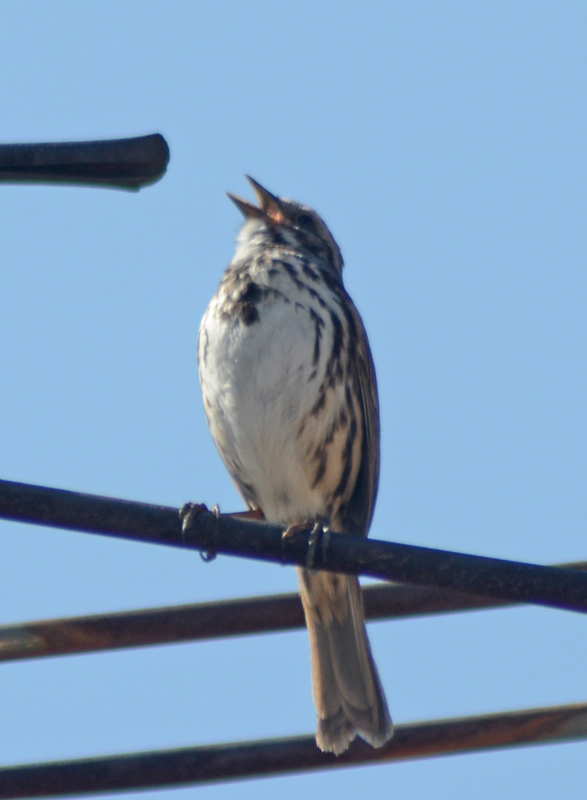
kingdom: Animalia
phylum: Chordata
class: Aves
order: Passeriformes
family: Passerellidae
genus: Melospiza
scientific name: Melospiza melodia
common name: Song sparrow
